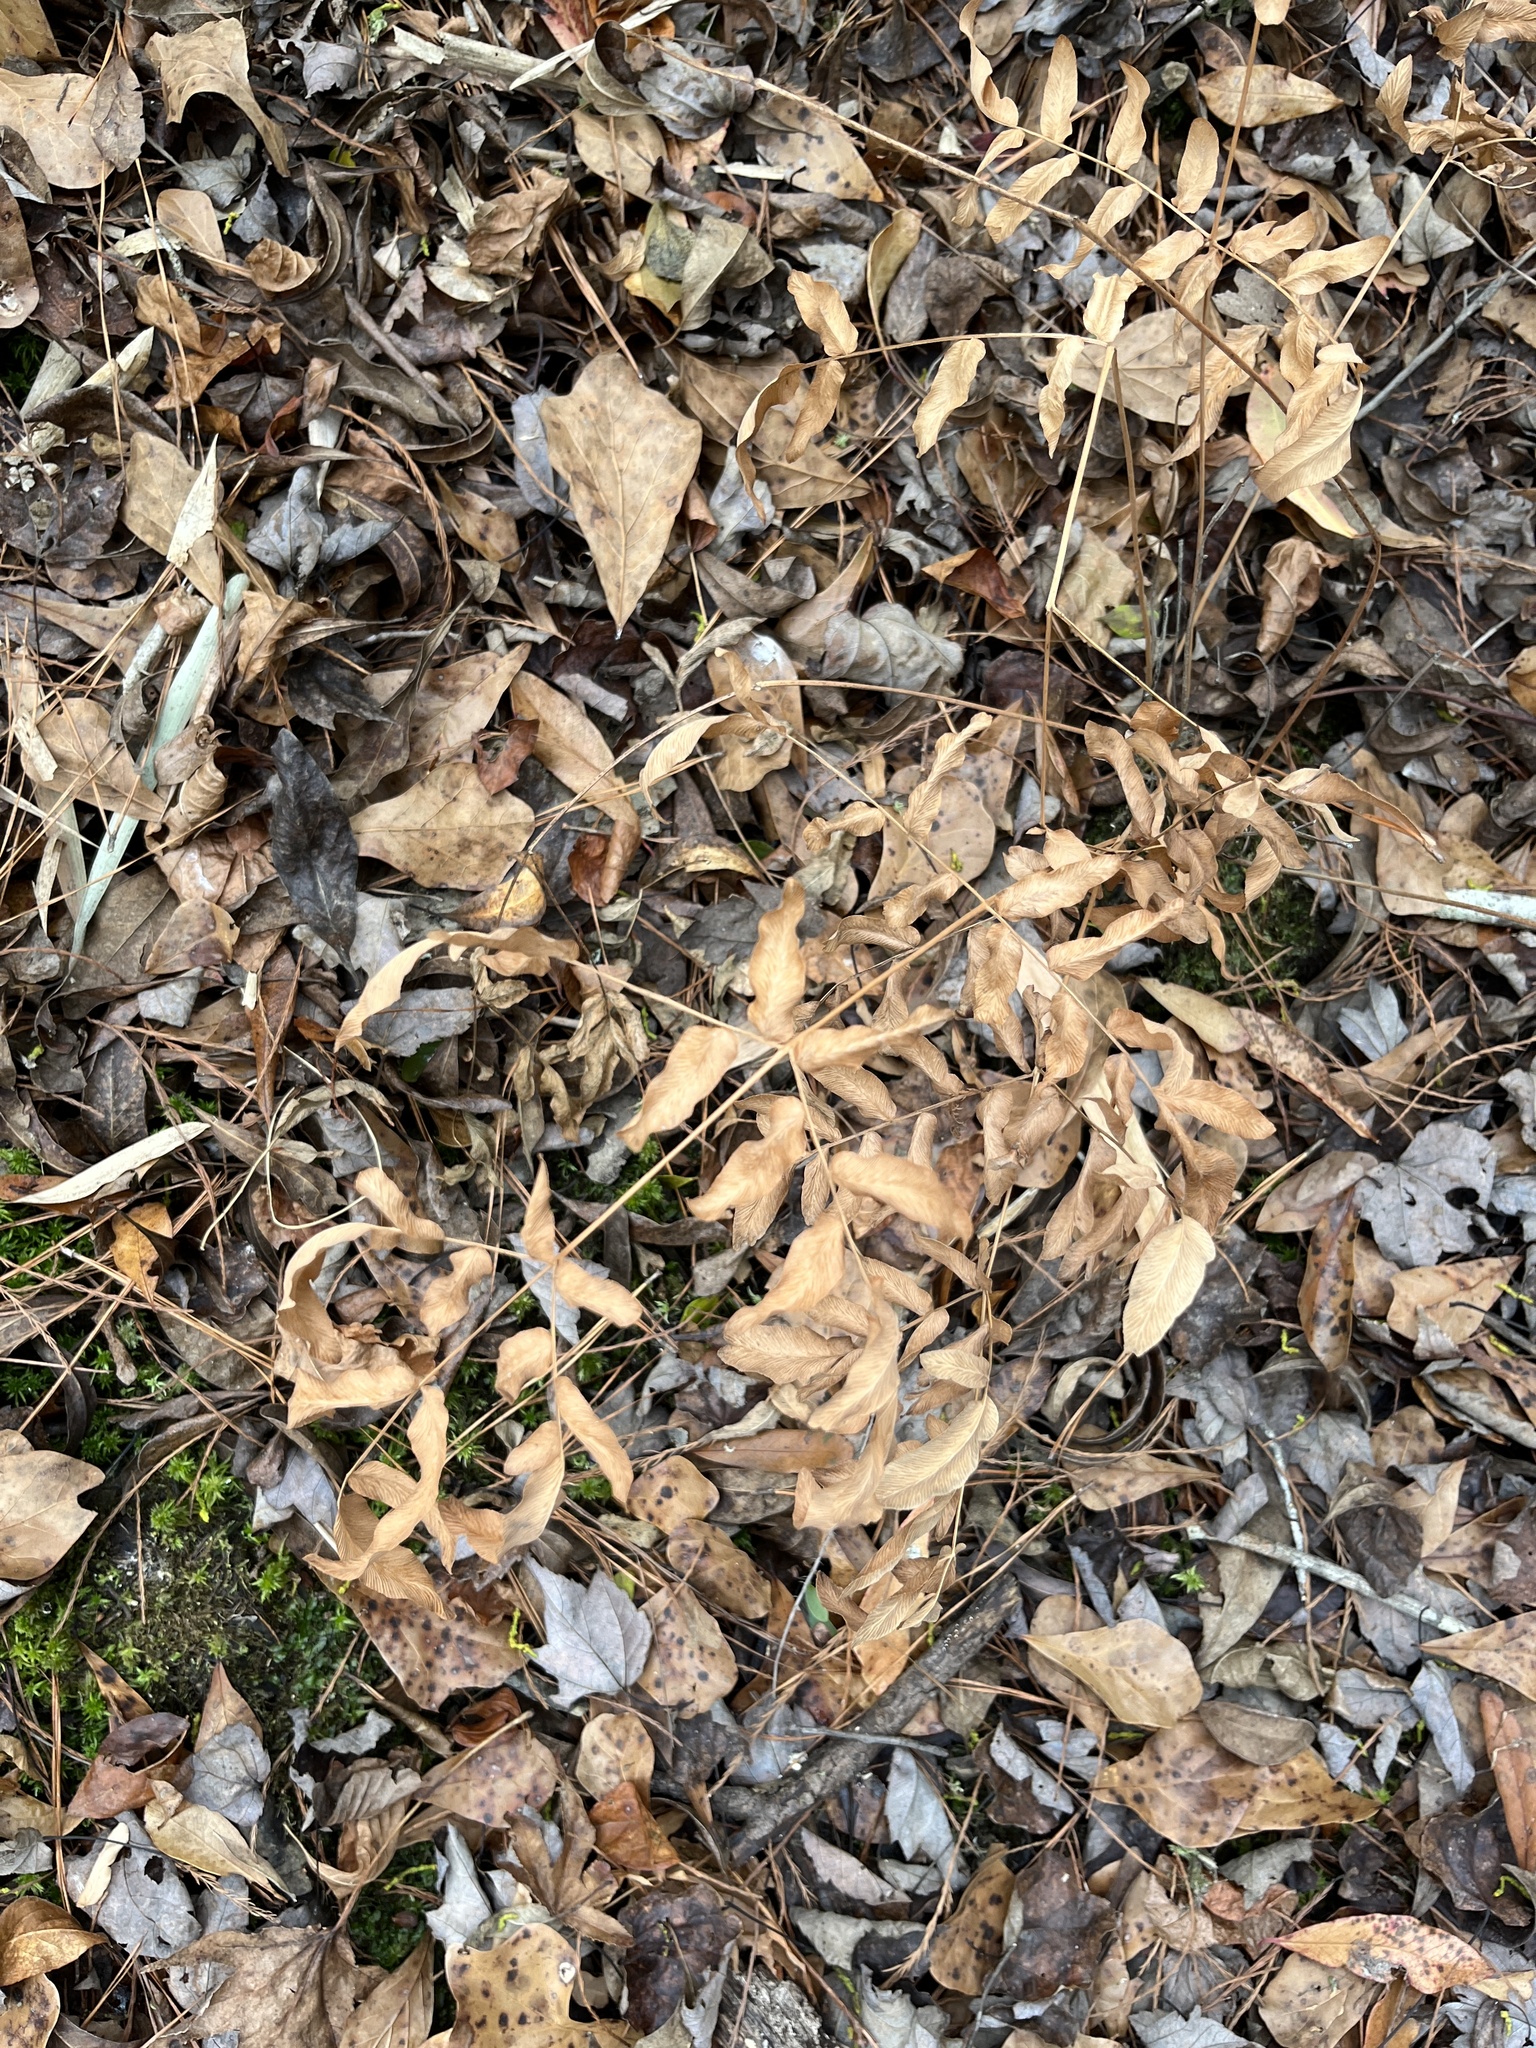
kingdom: Plantae
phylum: Tracheophyta
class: Polypodiopsida
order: Osmundales
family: Osmundaceae
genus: Osmunda
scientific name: Osmunda spectabilis
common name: American royal fern
